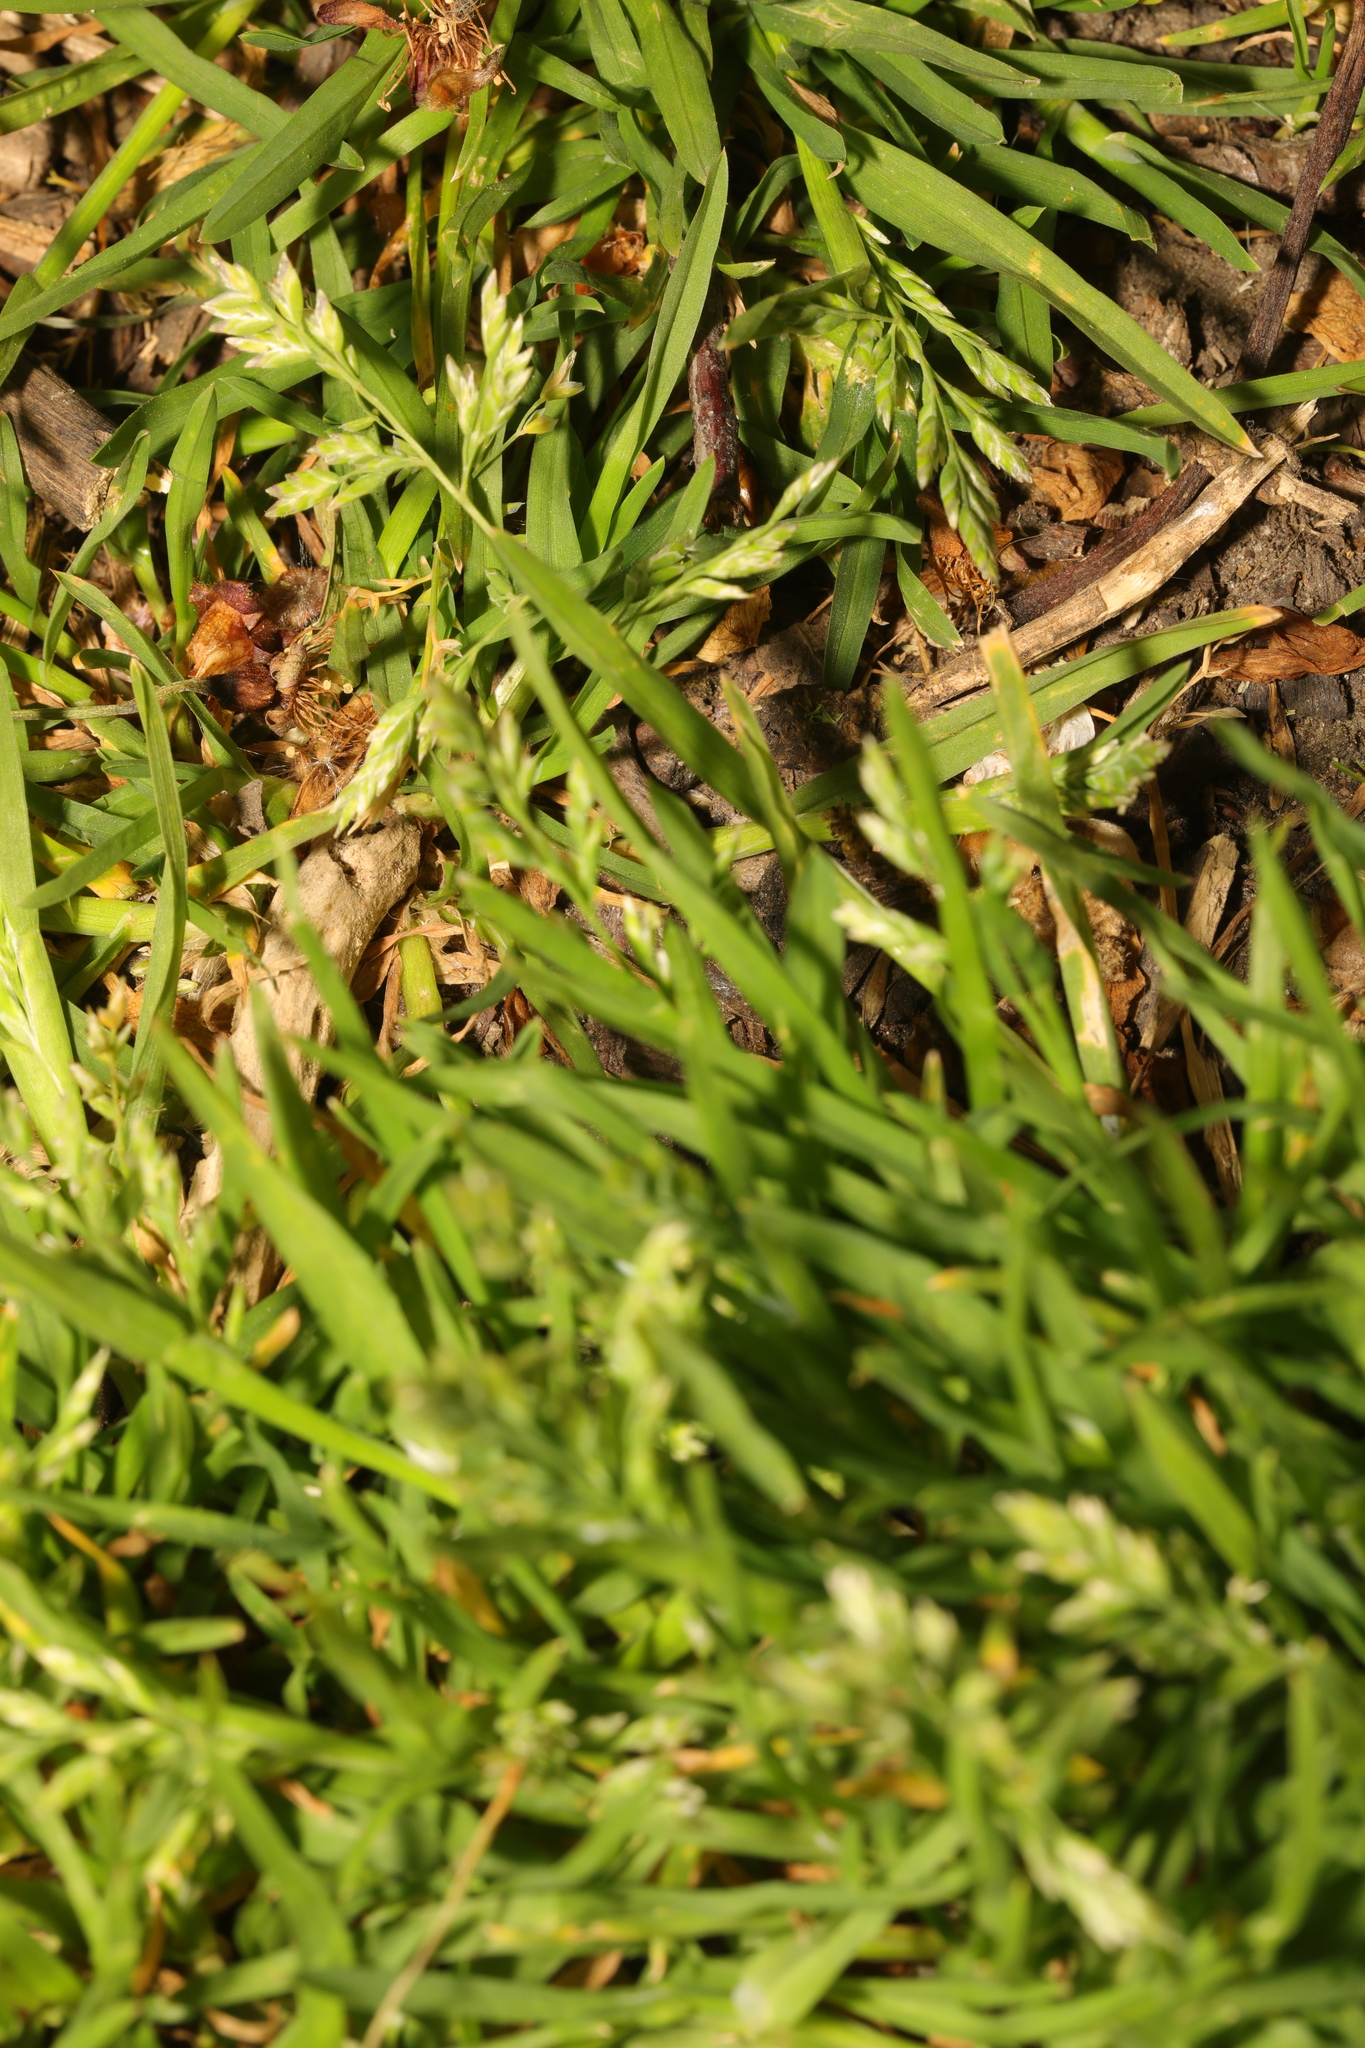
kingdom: Plantae
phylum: Tracheophyta
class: Liliopsida
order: Poales
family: Poaceae
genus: Poa
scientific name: Poa annua
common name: Annual bluegrass
